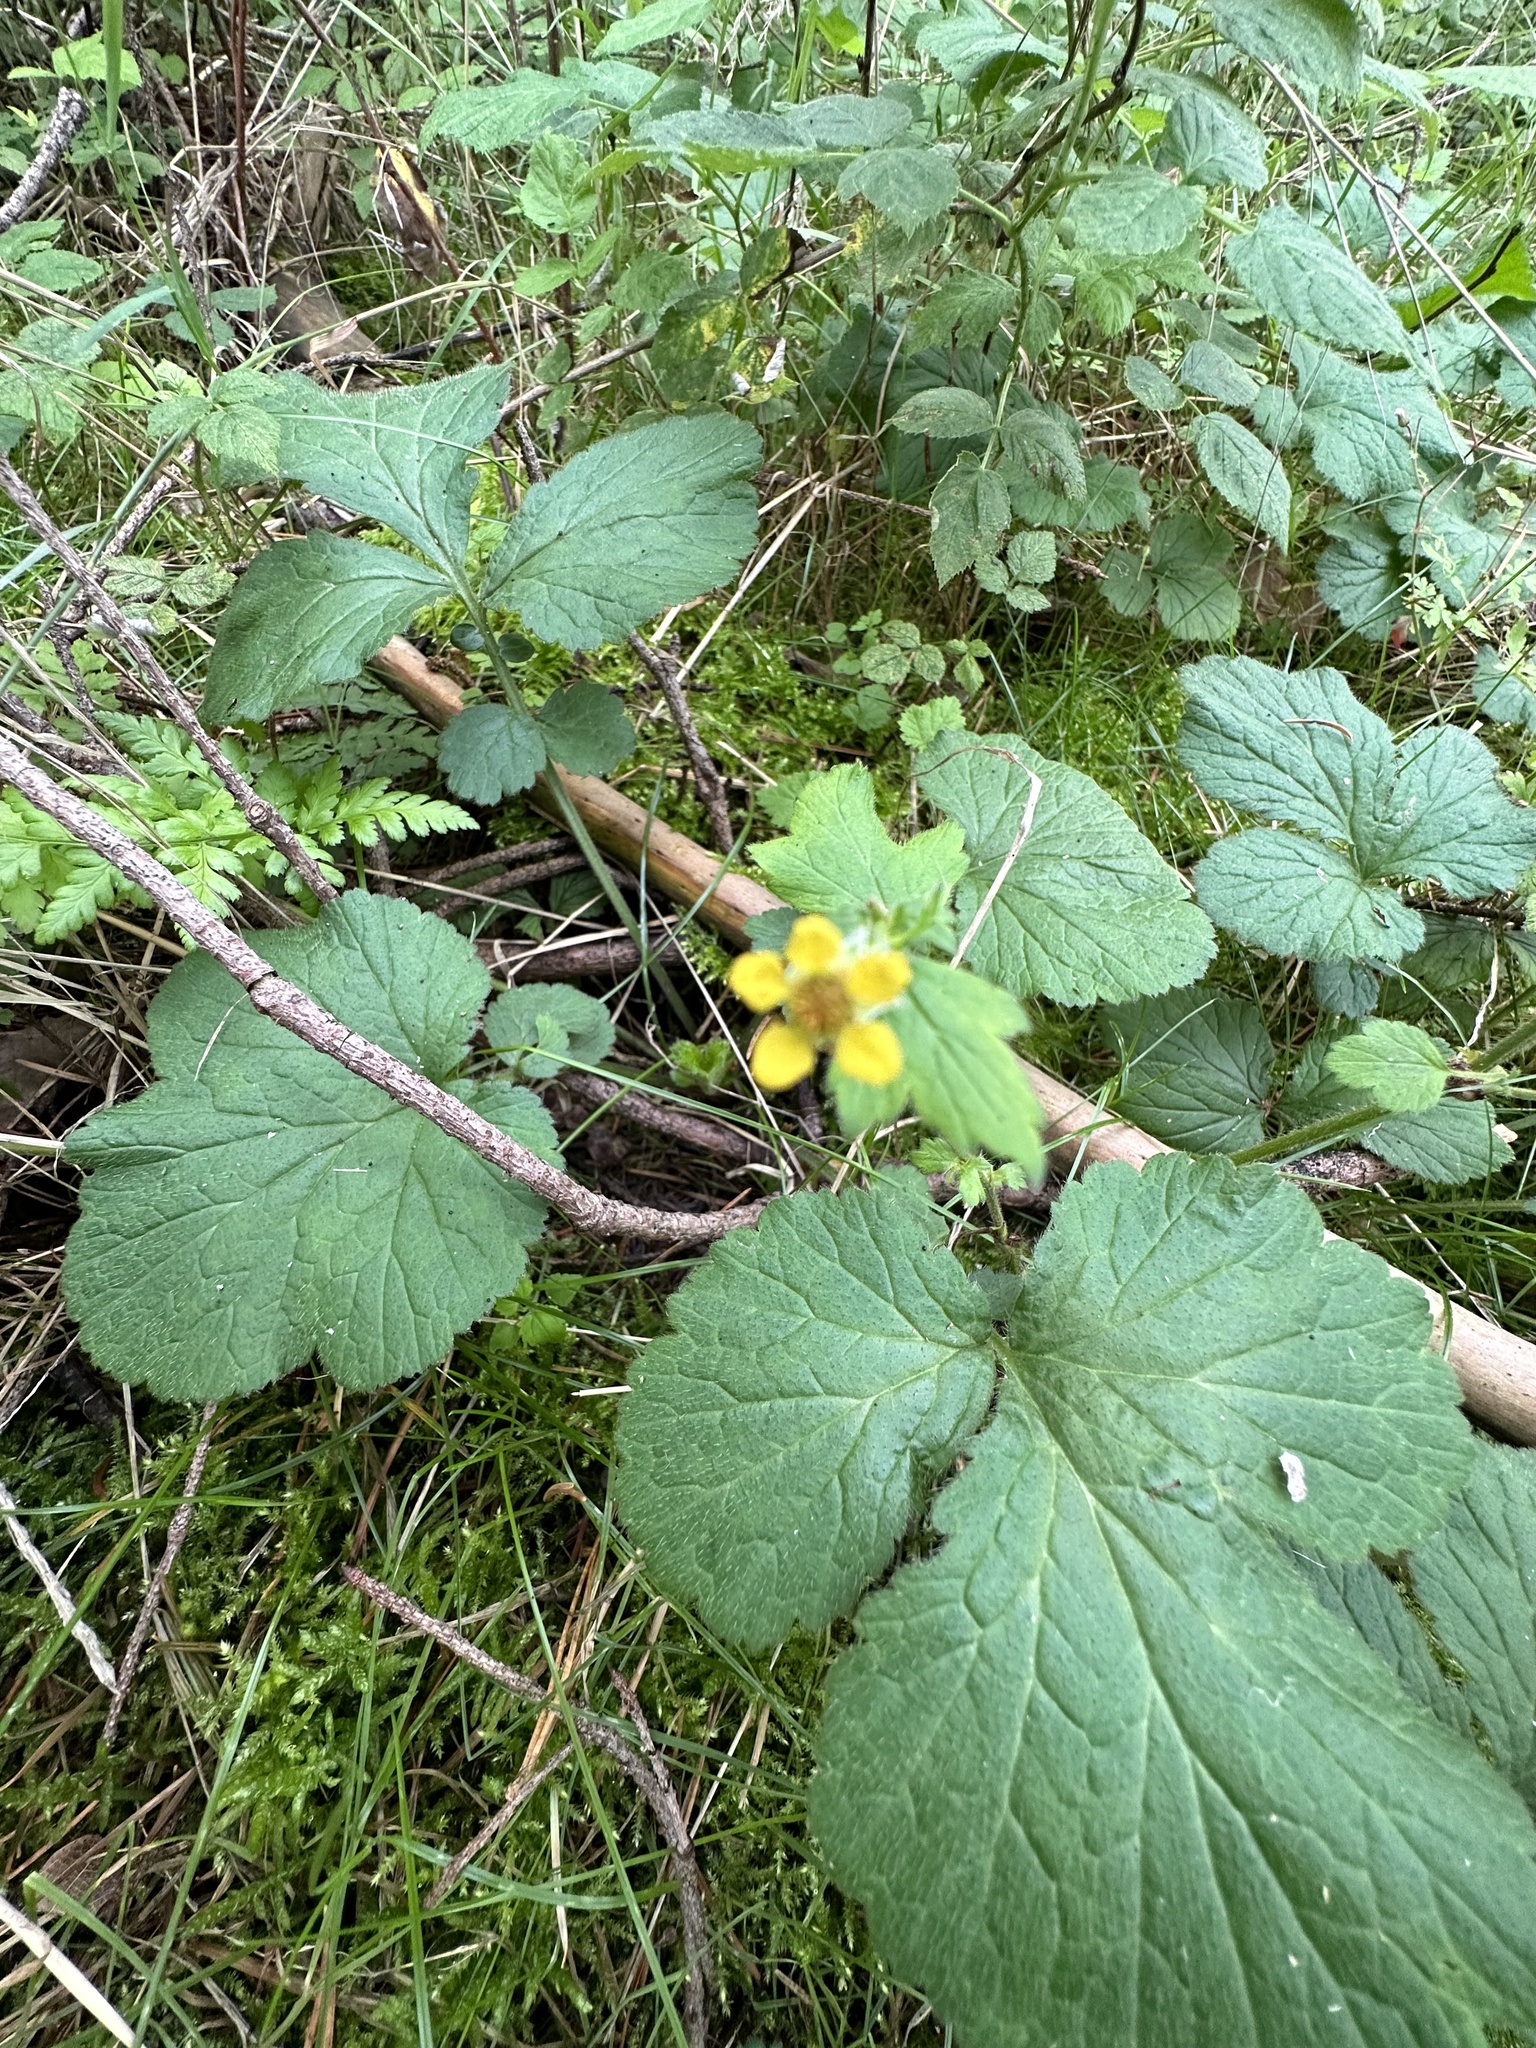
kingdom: Plantae
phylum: Tracheophyta
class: Magnoliopsida
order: Rosales
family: Rosaceae
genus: Geum
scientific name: Geum urbanum
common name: Wood avens
